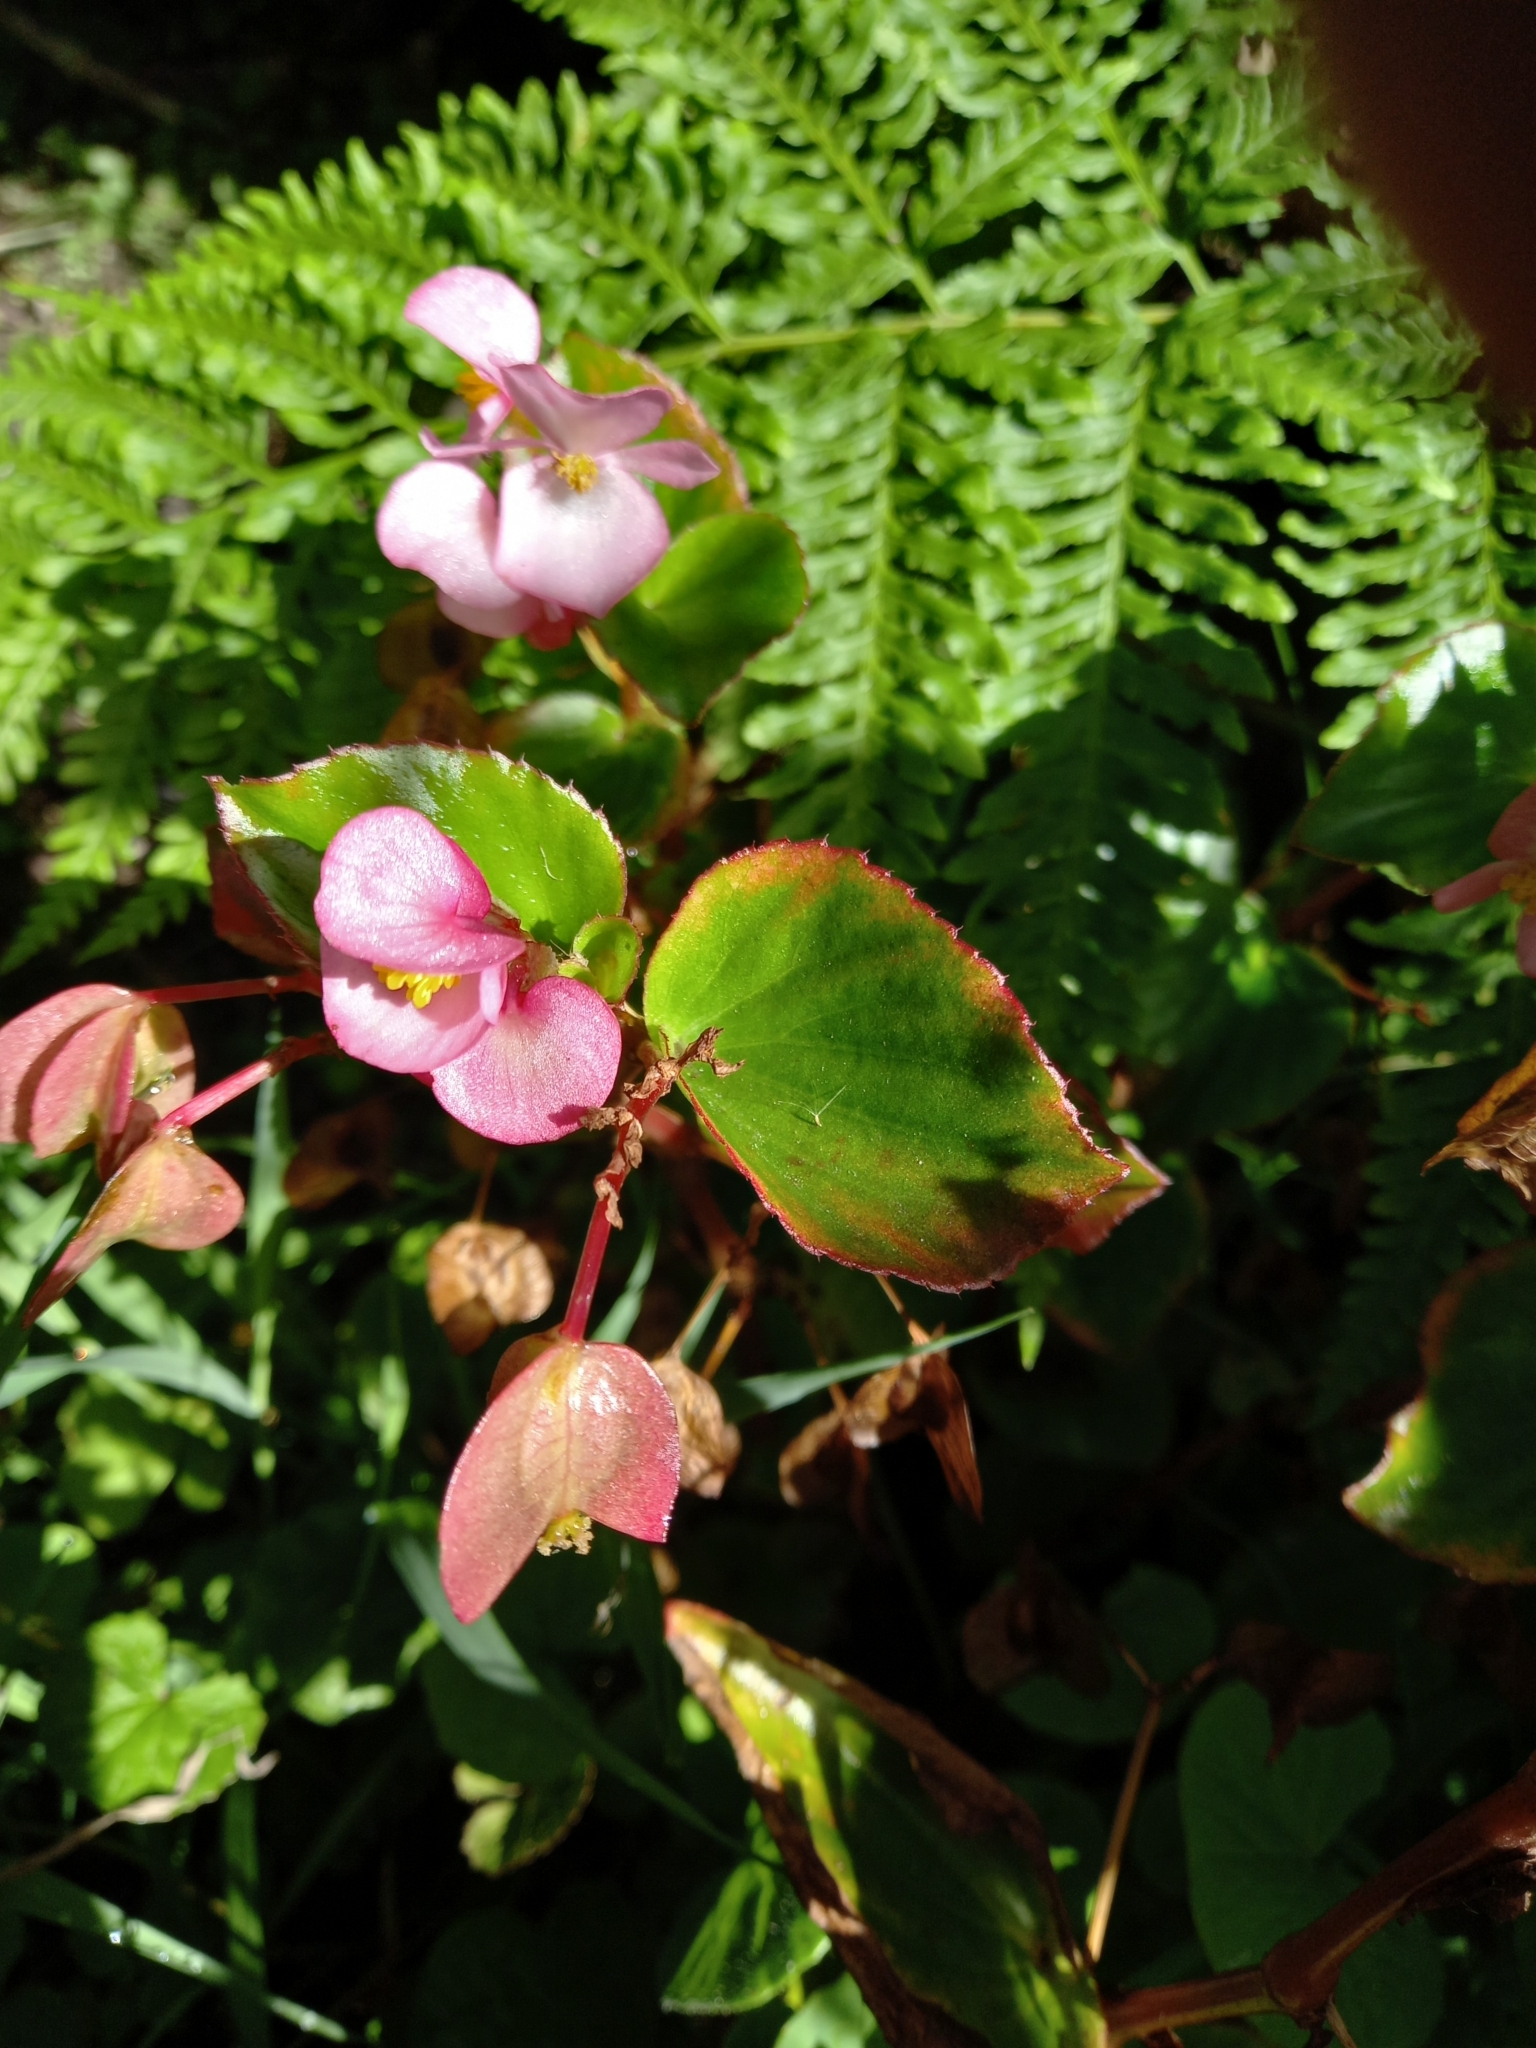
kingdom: Plantae
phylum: Tracheophyta
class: Magnoliopsida
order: Cucurbitales
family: Begoniaceae
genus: Begonia
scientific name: Begonia semperflorens-cultorum
